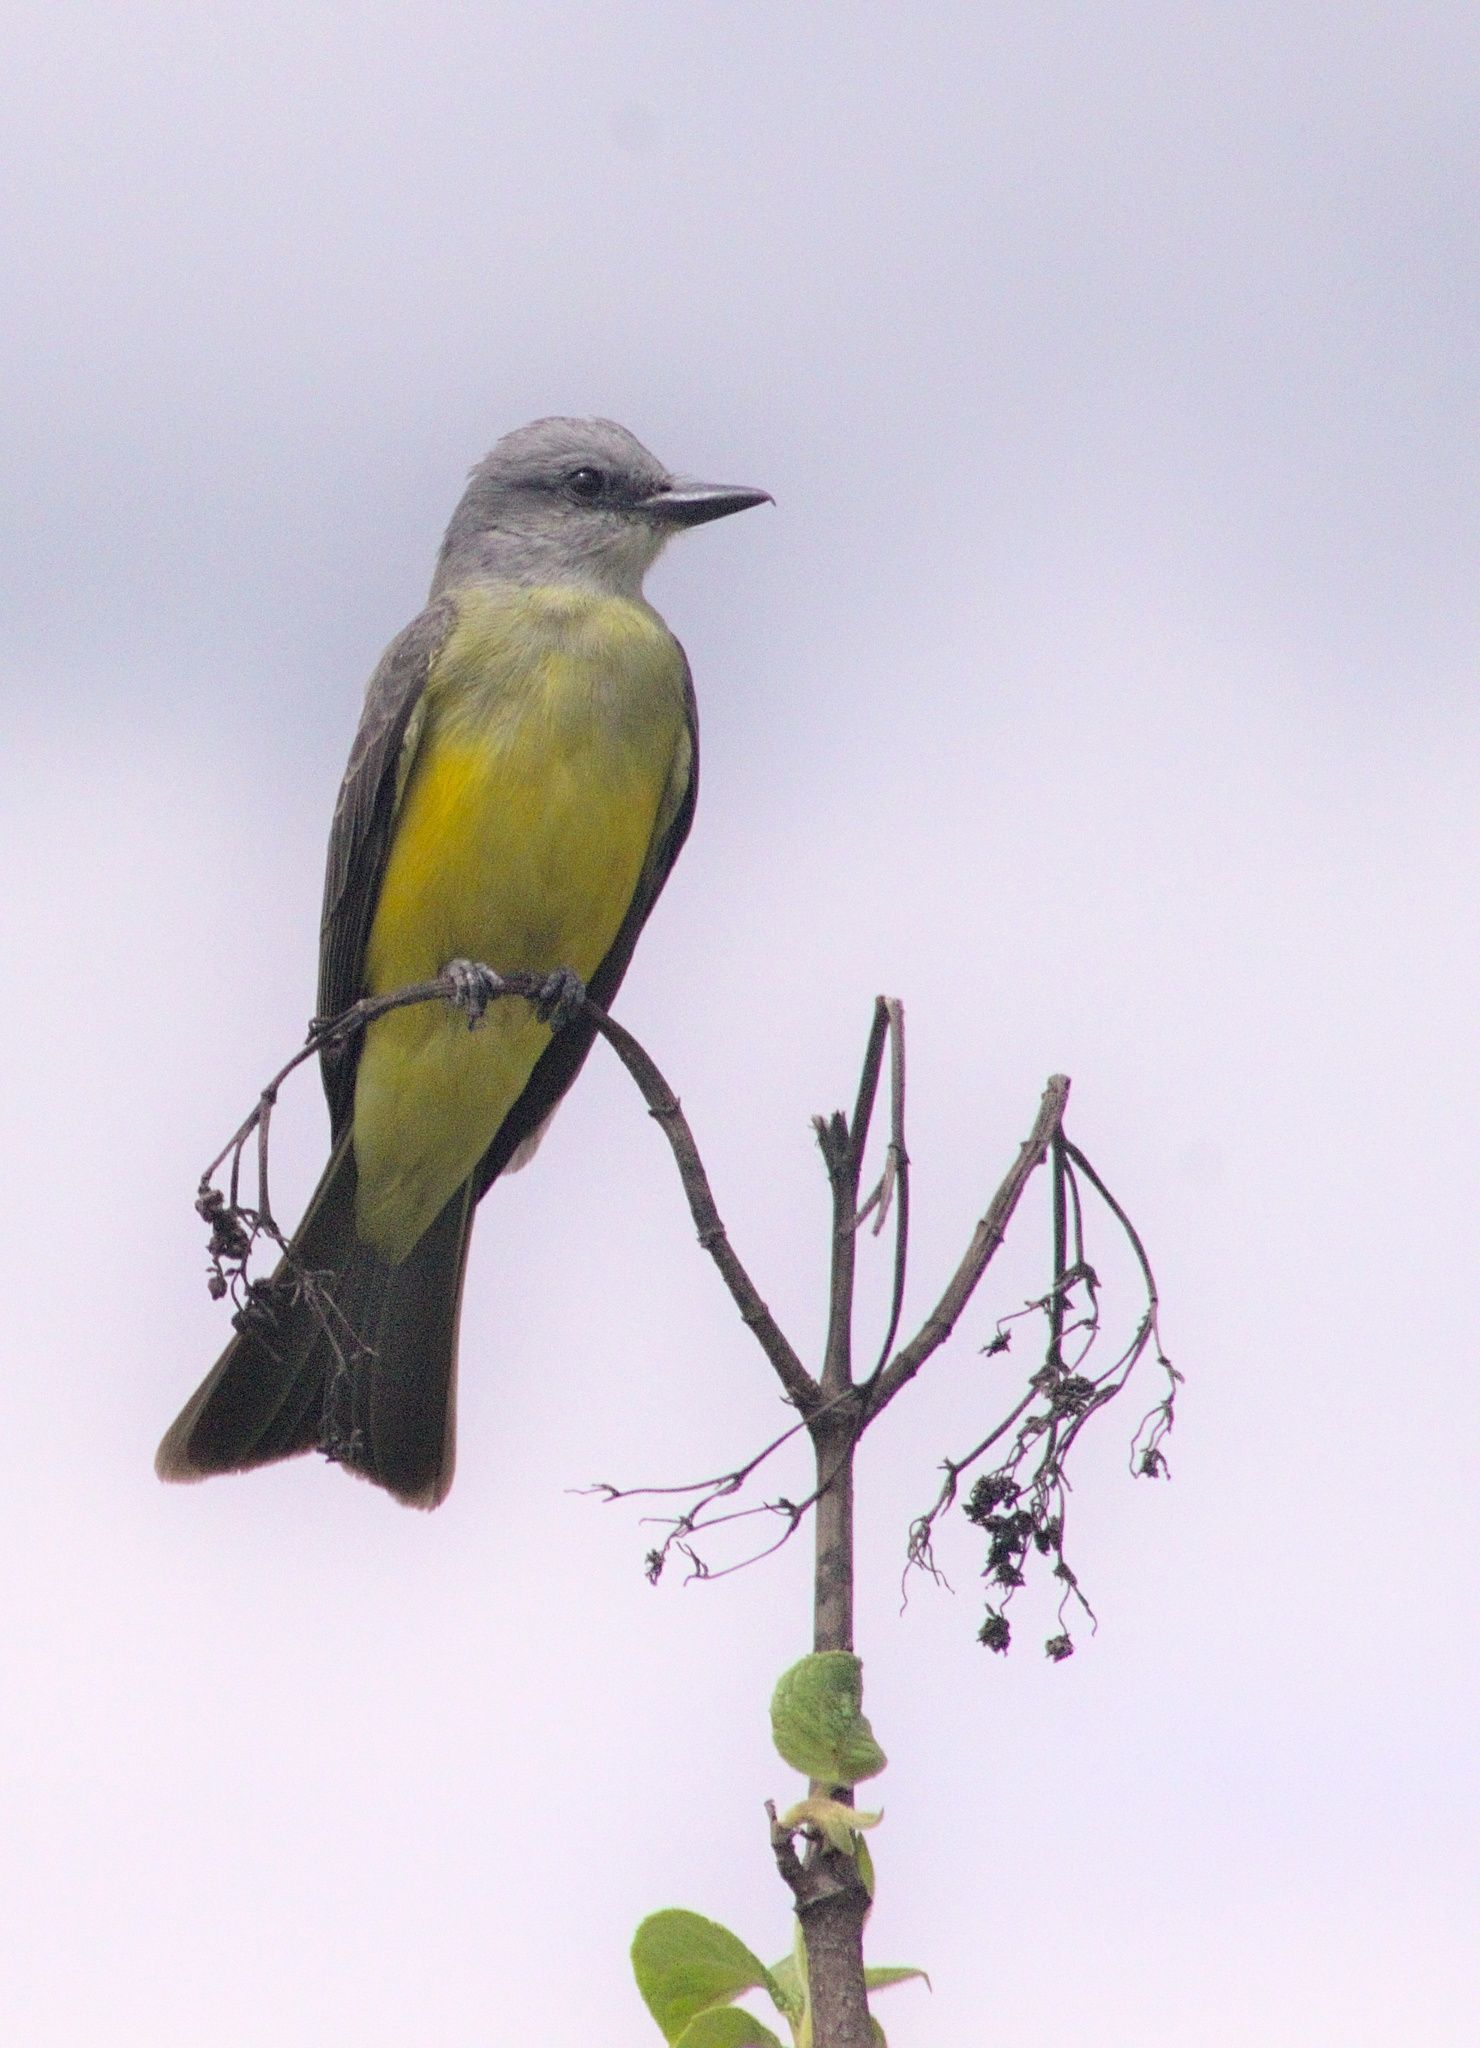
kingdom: Animalia
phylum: Chordata
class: Aves
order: Passeriformes
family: Tyrannidae
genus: Tyrannus
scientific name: Tyrannus melancholicus
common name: Tropical kingbird
